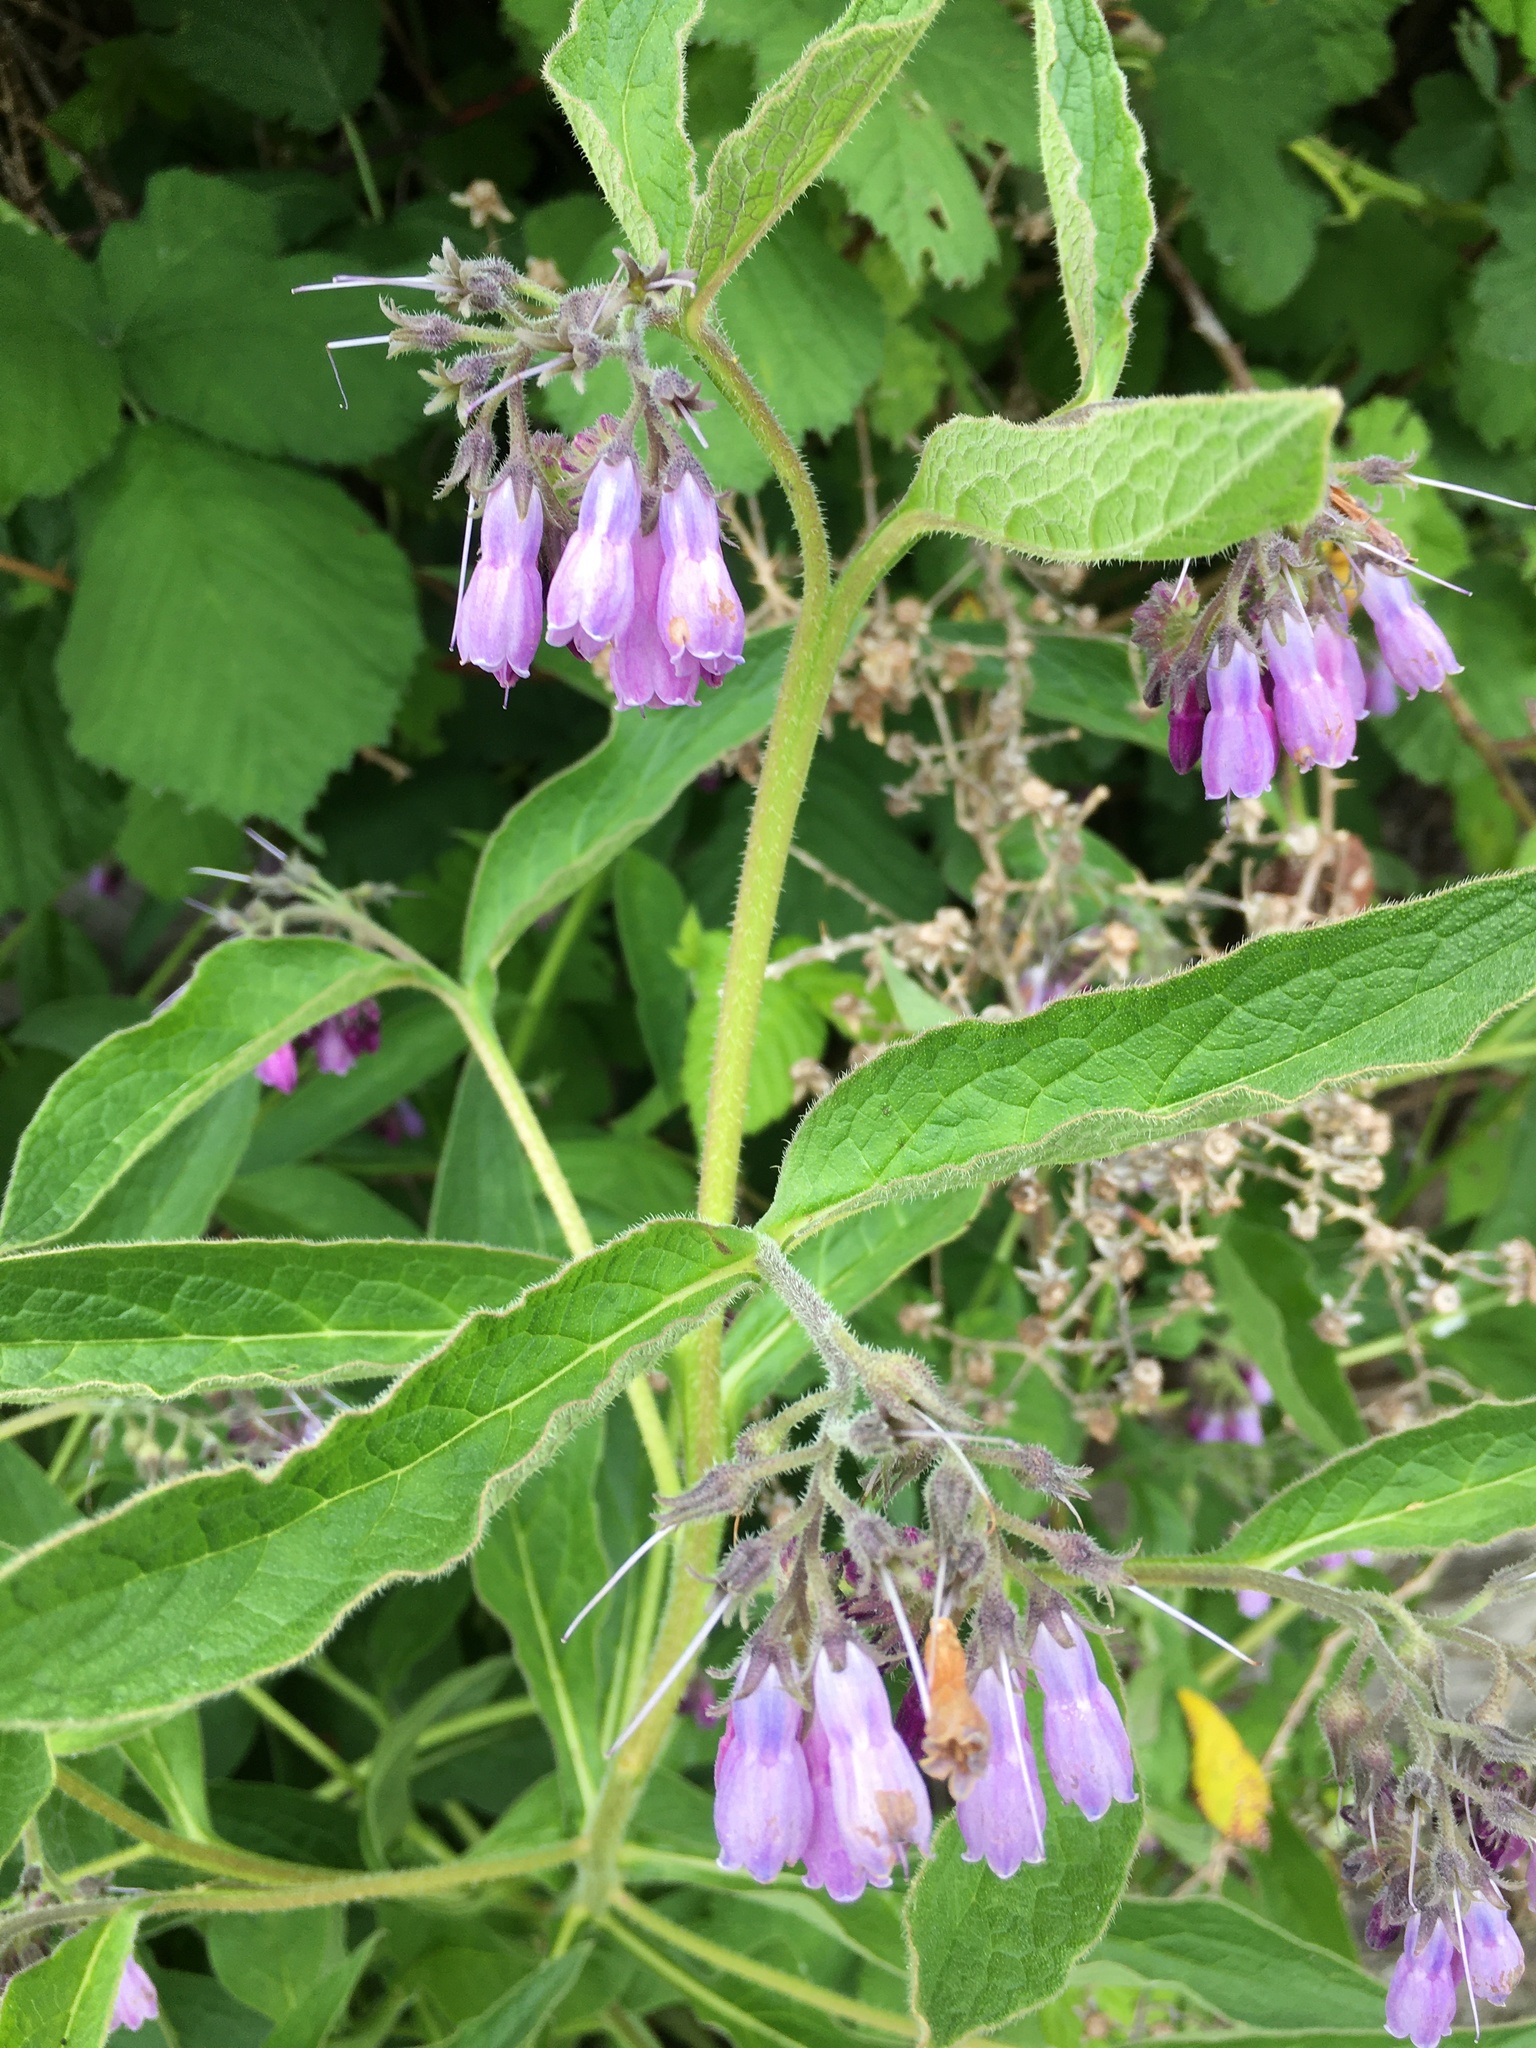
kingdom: Plantae
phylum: Tracheophyta
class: Magnoliopsida
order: Boraginales
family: Boraginaceae
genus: Symphytum
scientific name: Symphytum officinale
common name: Common comfrey
